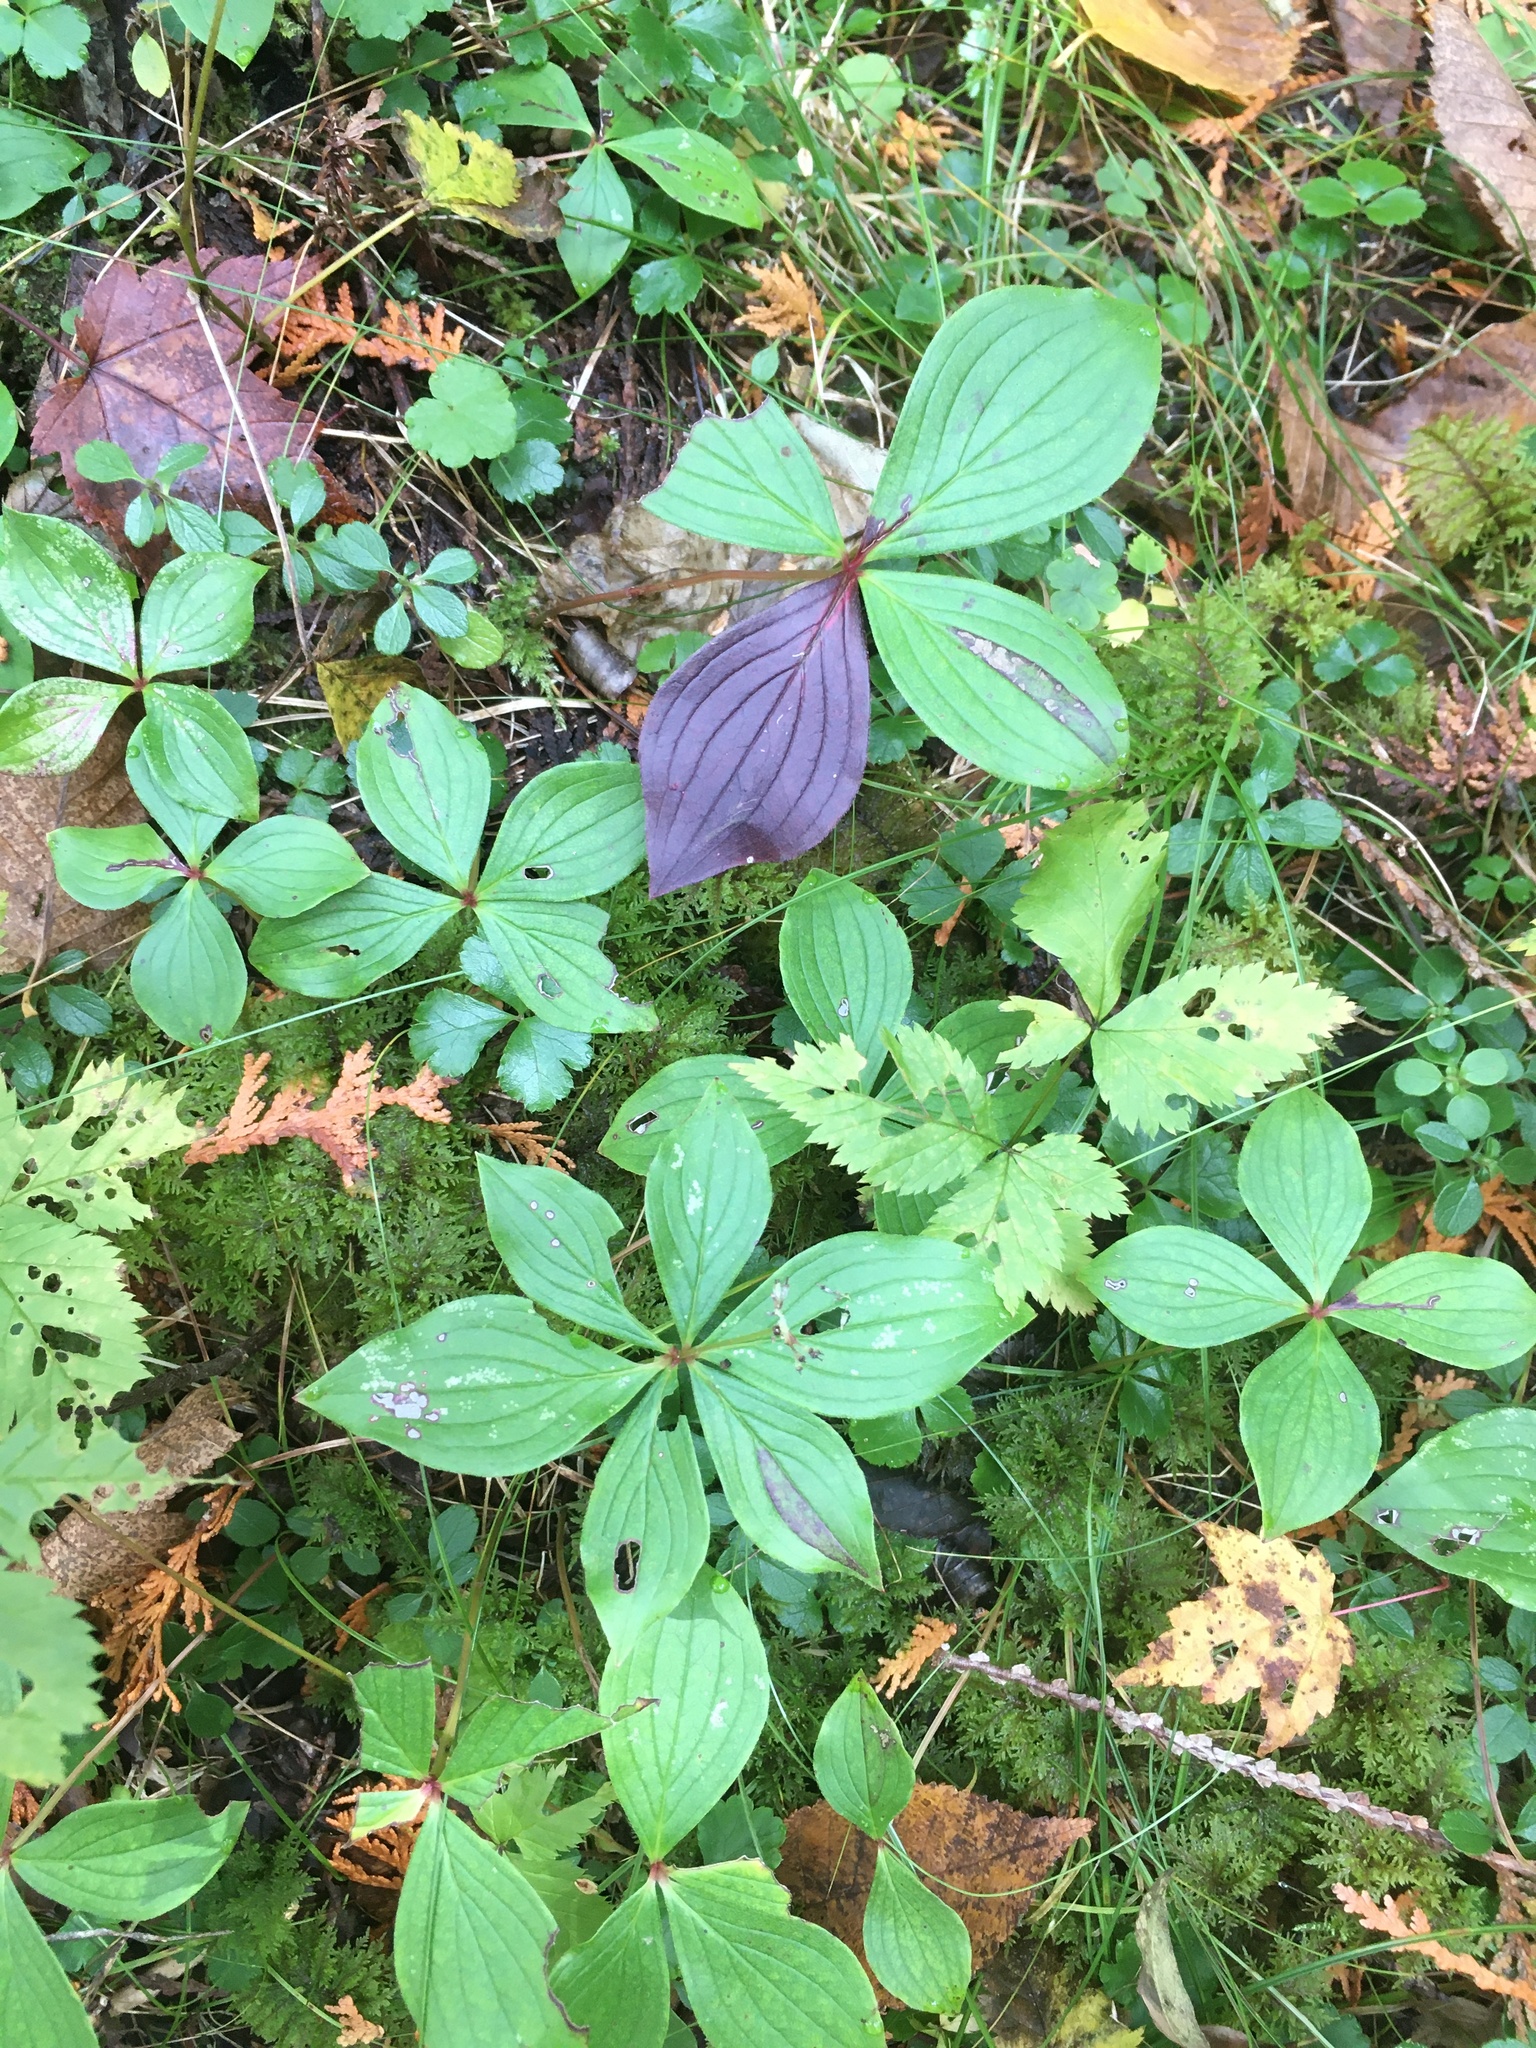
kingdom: Plantae
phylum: Tracheophyta
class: Magnoliopsida
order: Cornales
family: Cornaceae
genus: Cornus
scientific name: Cornus canadensis
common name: Creeping dogwood
